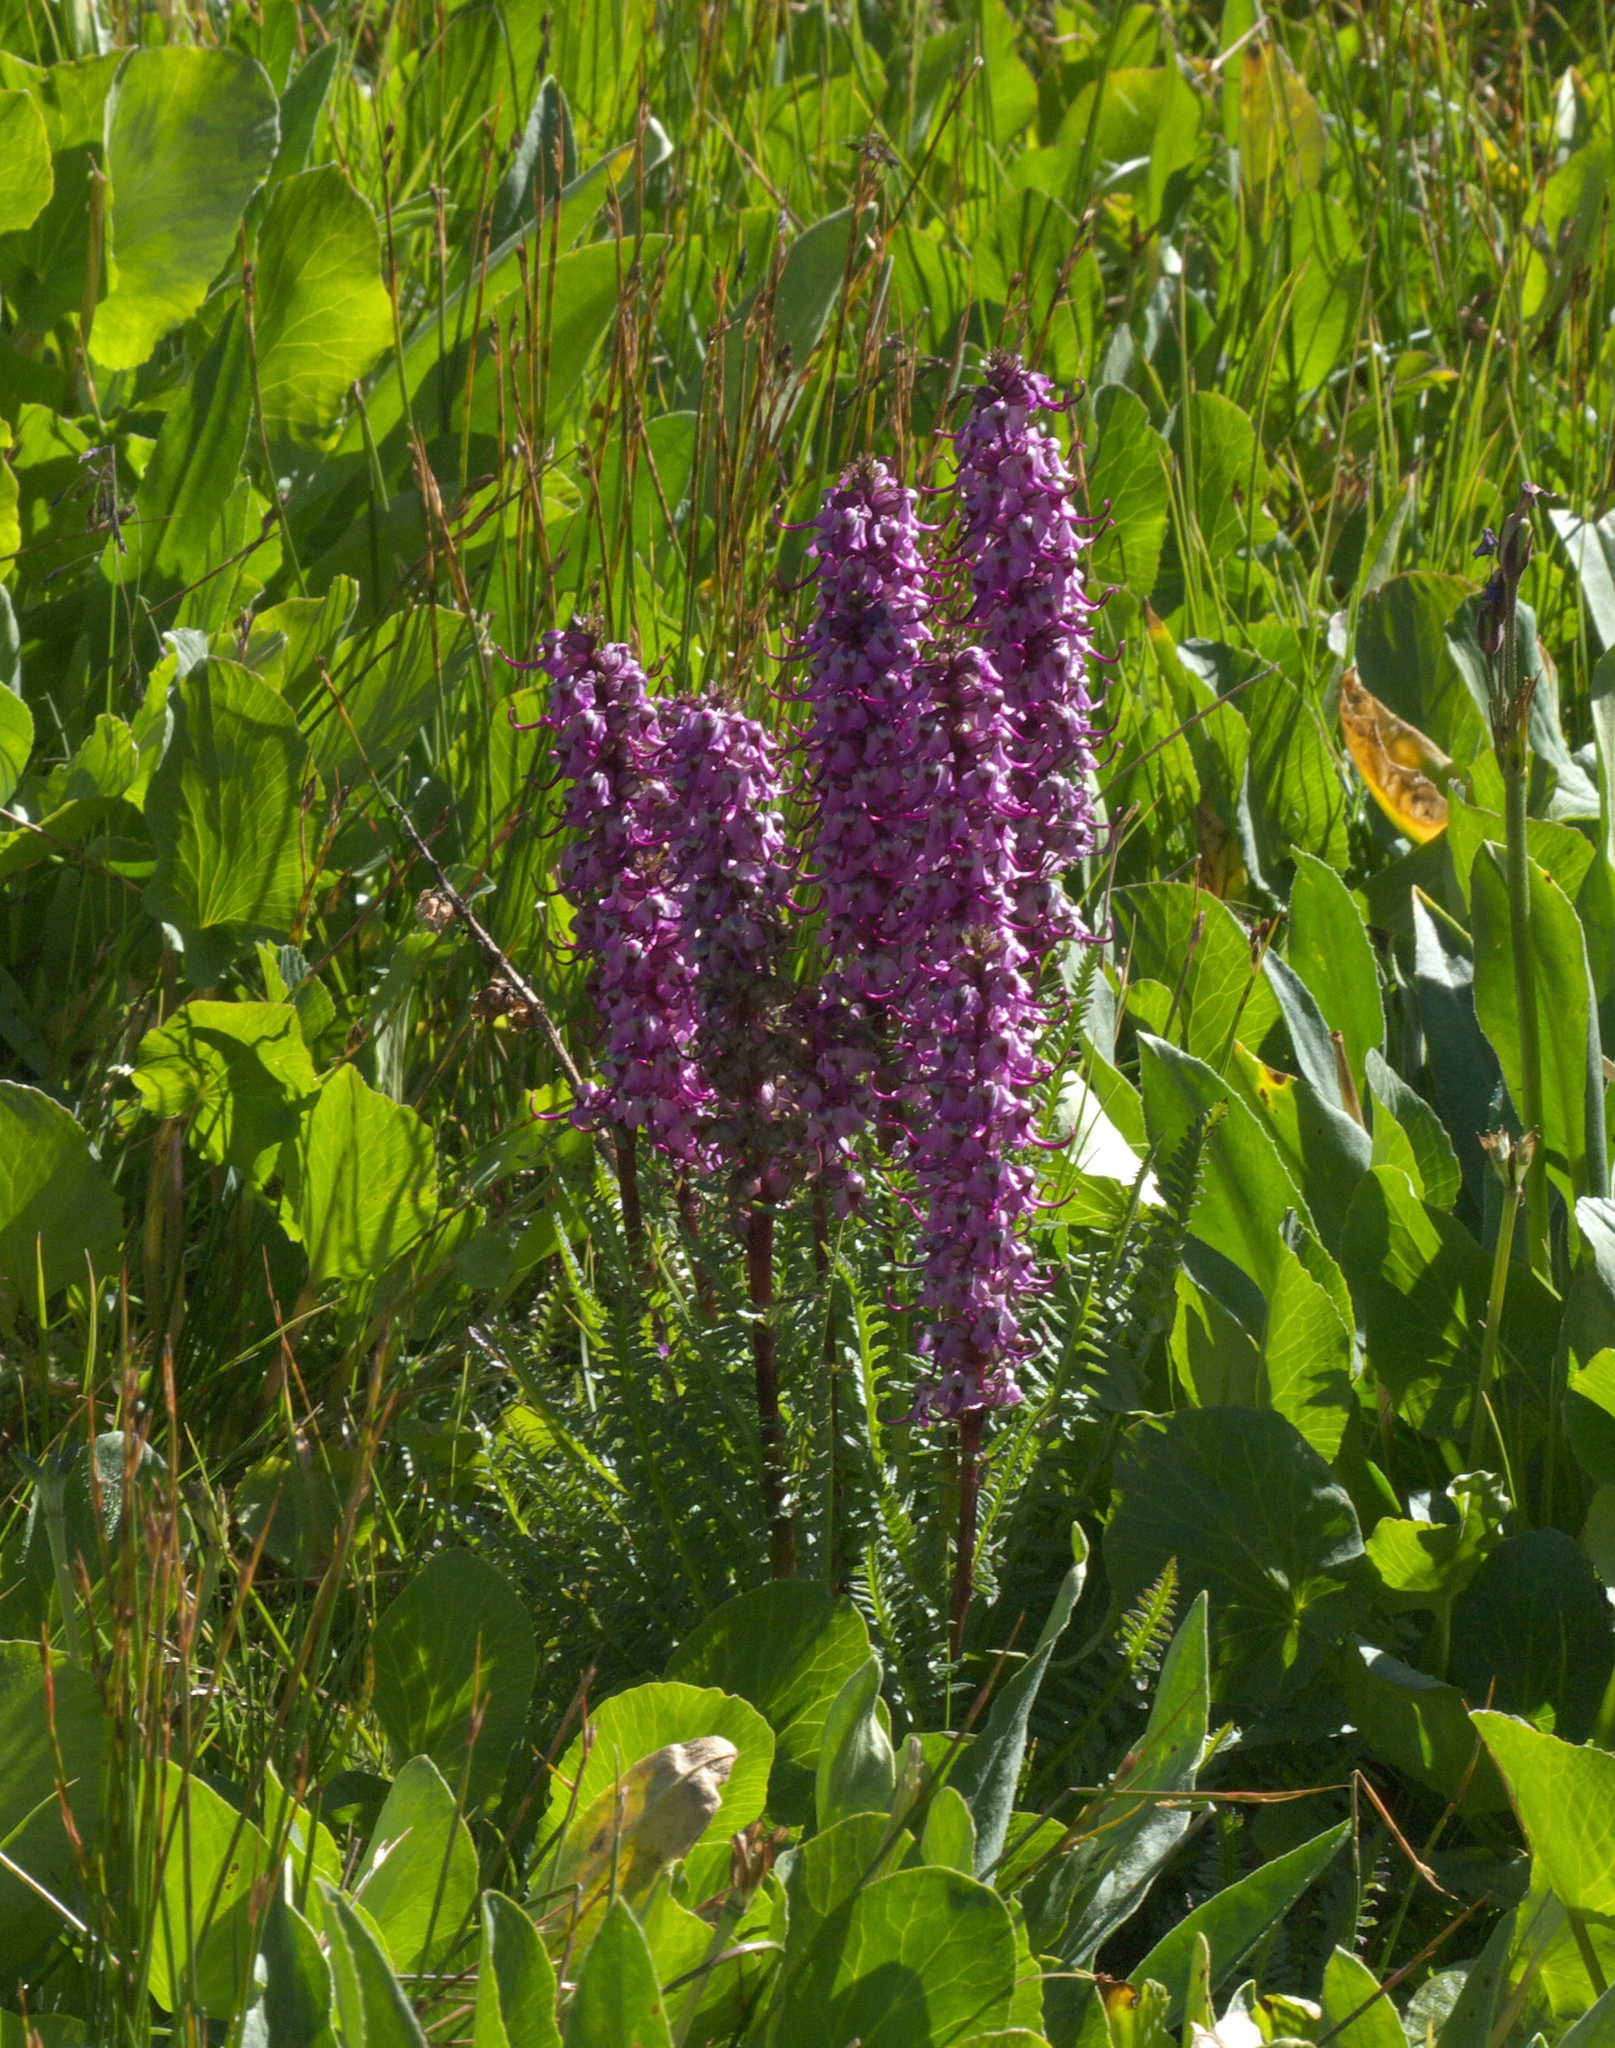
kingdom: Plantae
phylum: Tracheophyta
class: Magnoliopsida
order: Lamiales
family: Orobanchaceae
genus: Pedicularis
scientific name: Pedicularis groenlandica
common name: Elephant's-head
